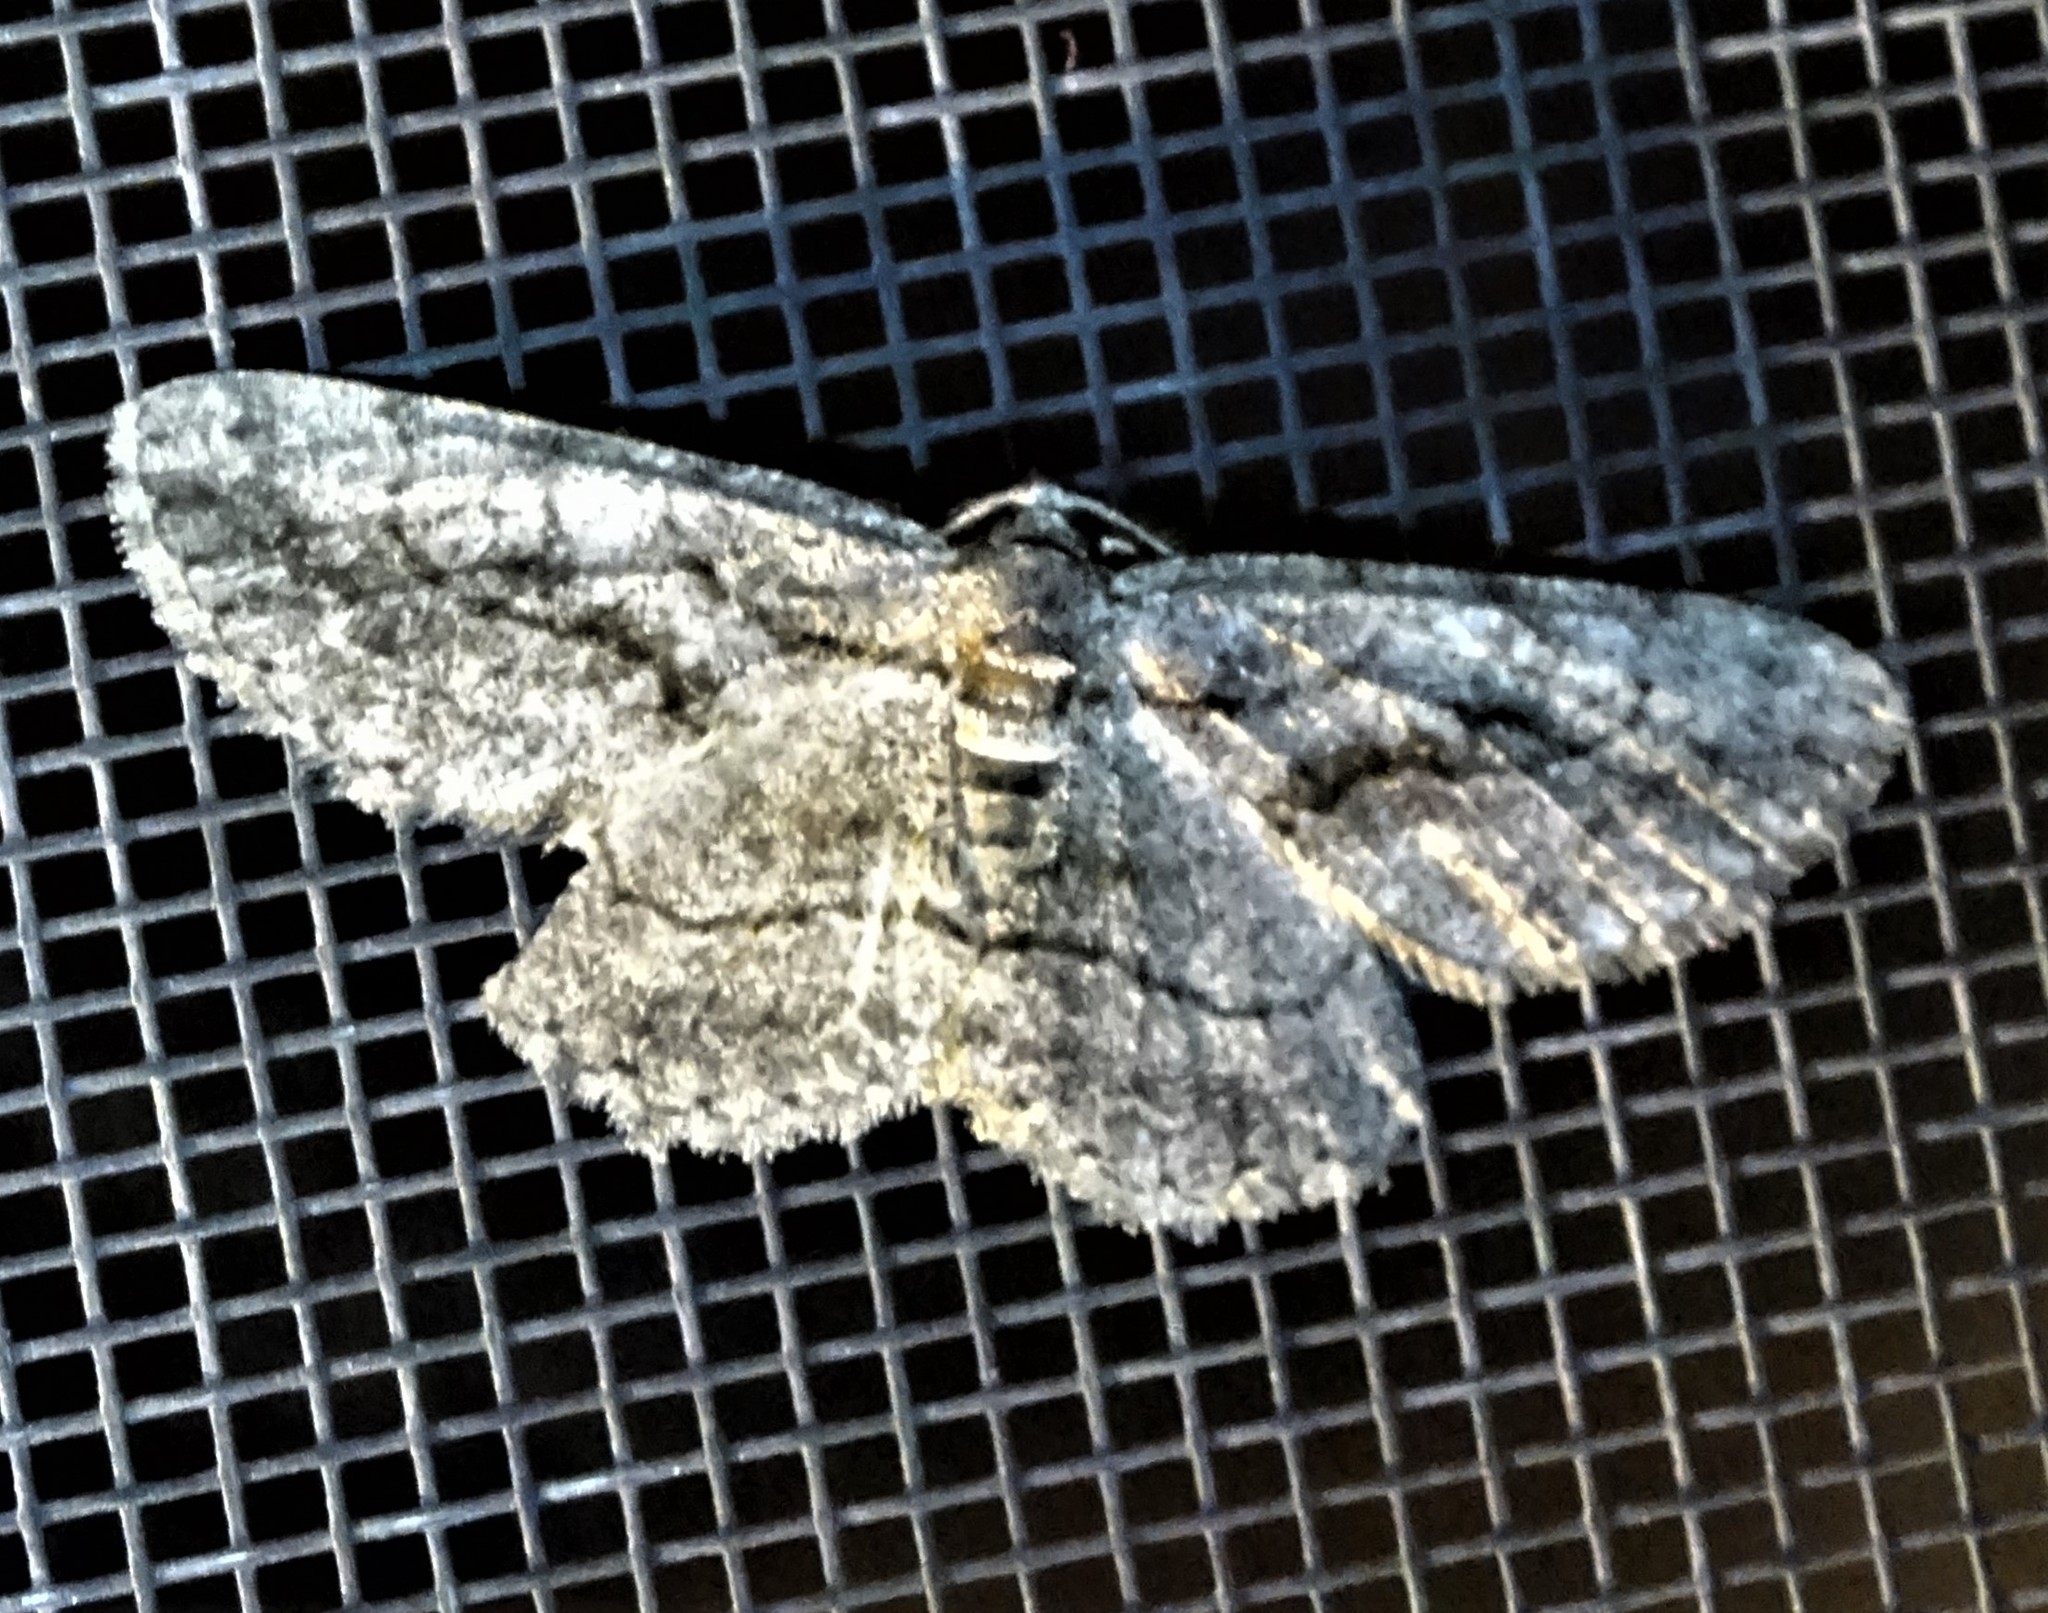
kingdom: Animalia
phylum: Arthropoda
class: Insecta
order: Lepidoptera
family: Geometridae
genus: Anavitrinella
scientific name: Anavitrinella pampinaria
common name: Common gray
